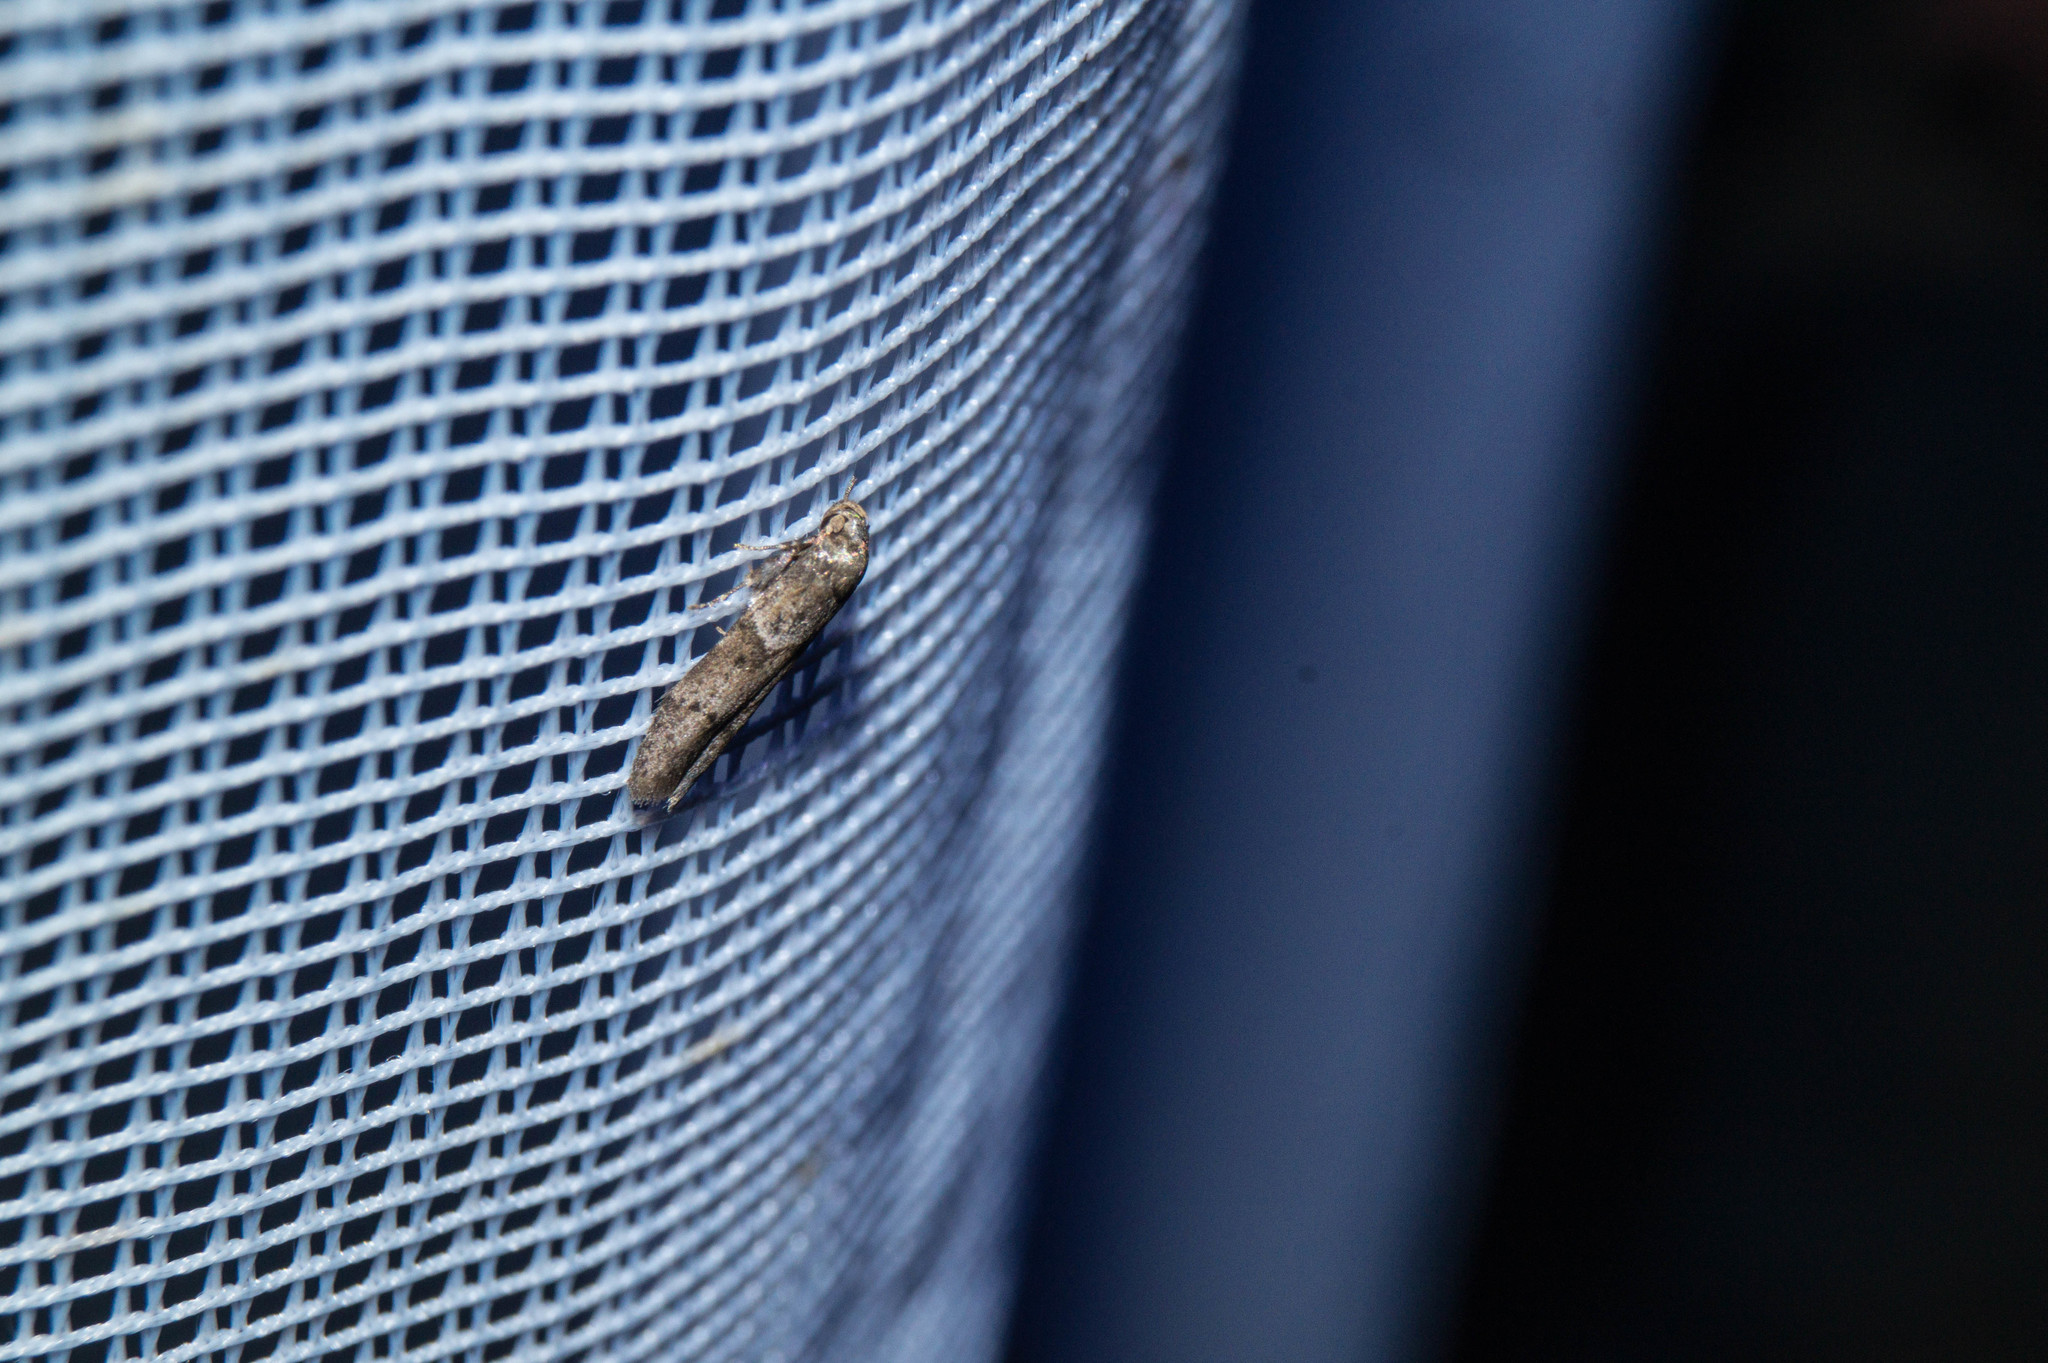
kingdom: Animalia
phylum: Arthropoda
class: Insecta
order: Lepidoptera
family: Blastobasidae
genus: Blastobasis
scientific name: Blastobasis glandulella
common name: Acorn moth
